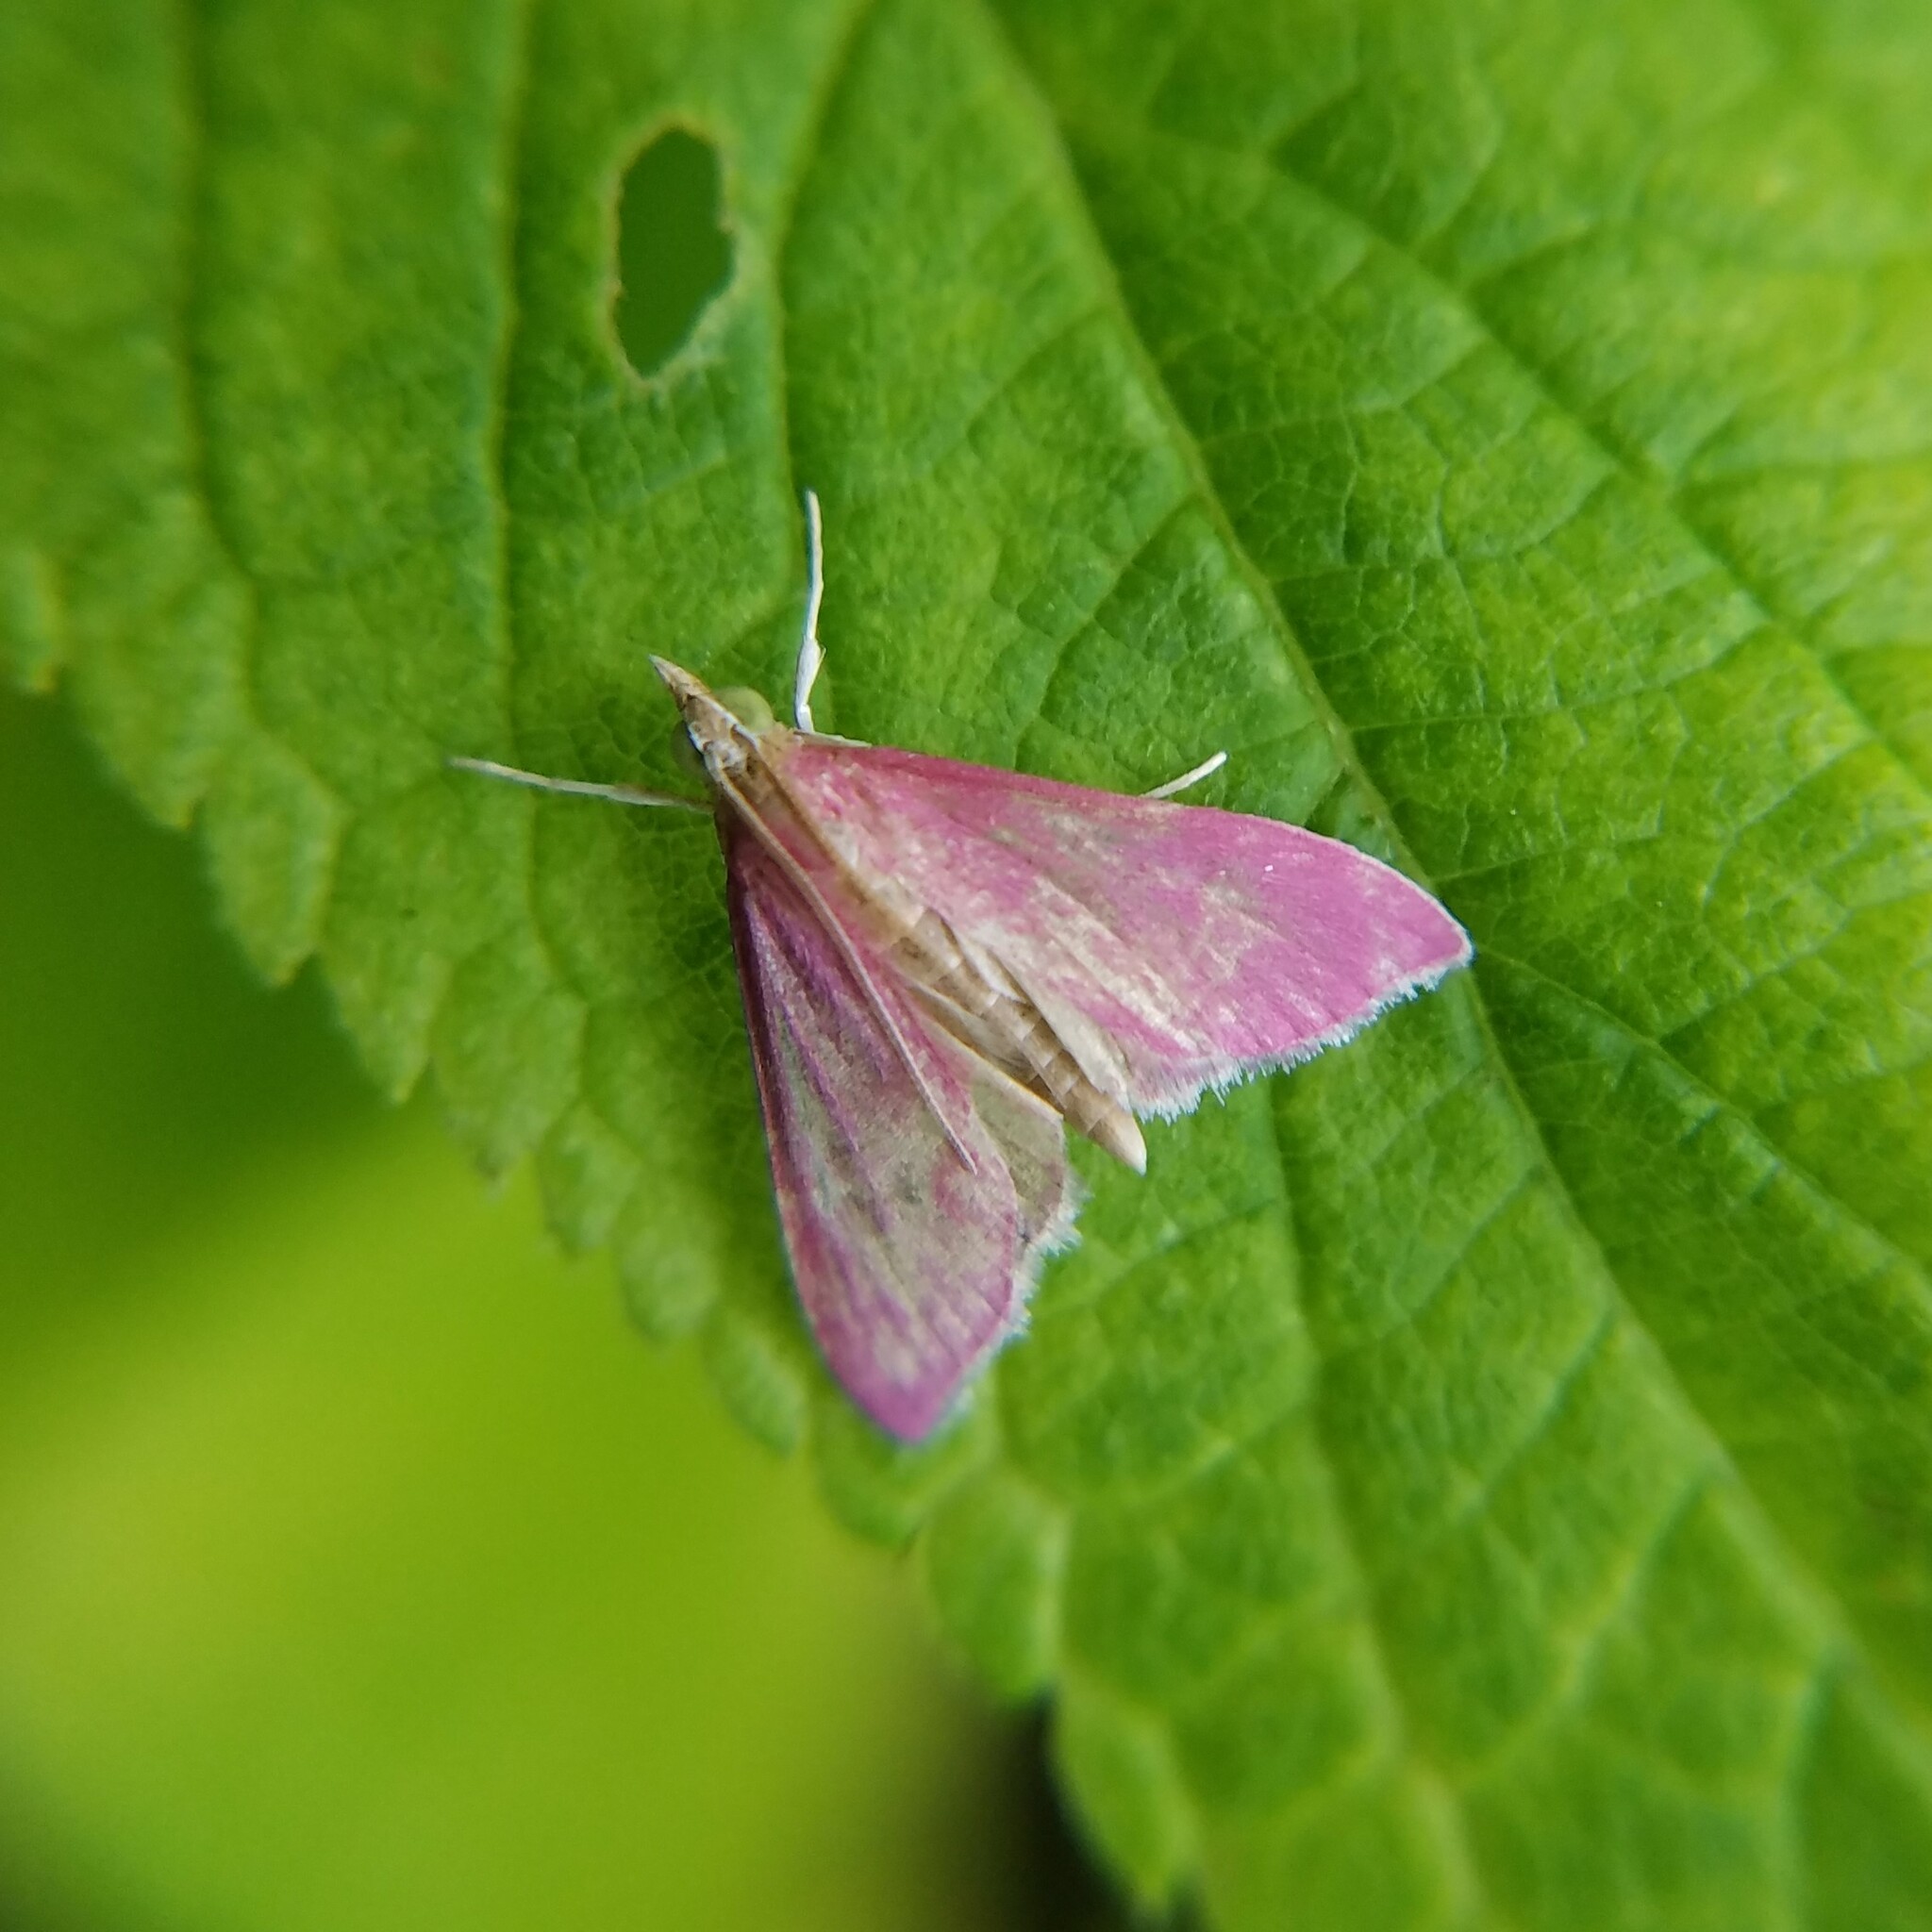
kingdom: Animalia
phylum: Arthropoda
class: Insecta
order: Lepidoptera
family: Crambidae
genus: Pyrausta
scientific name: Pyrausta inornatalis
